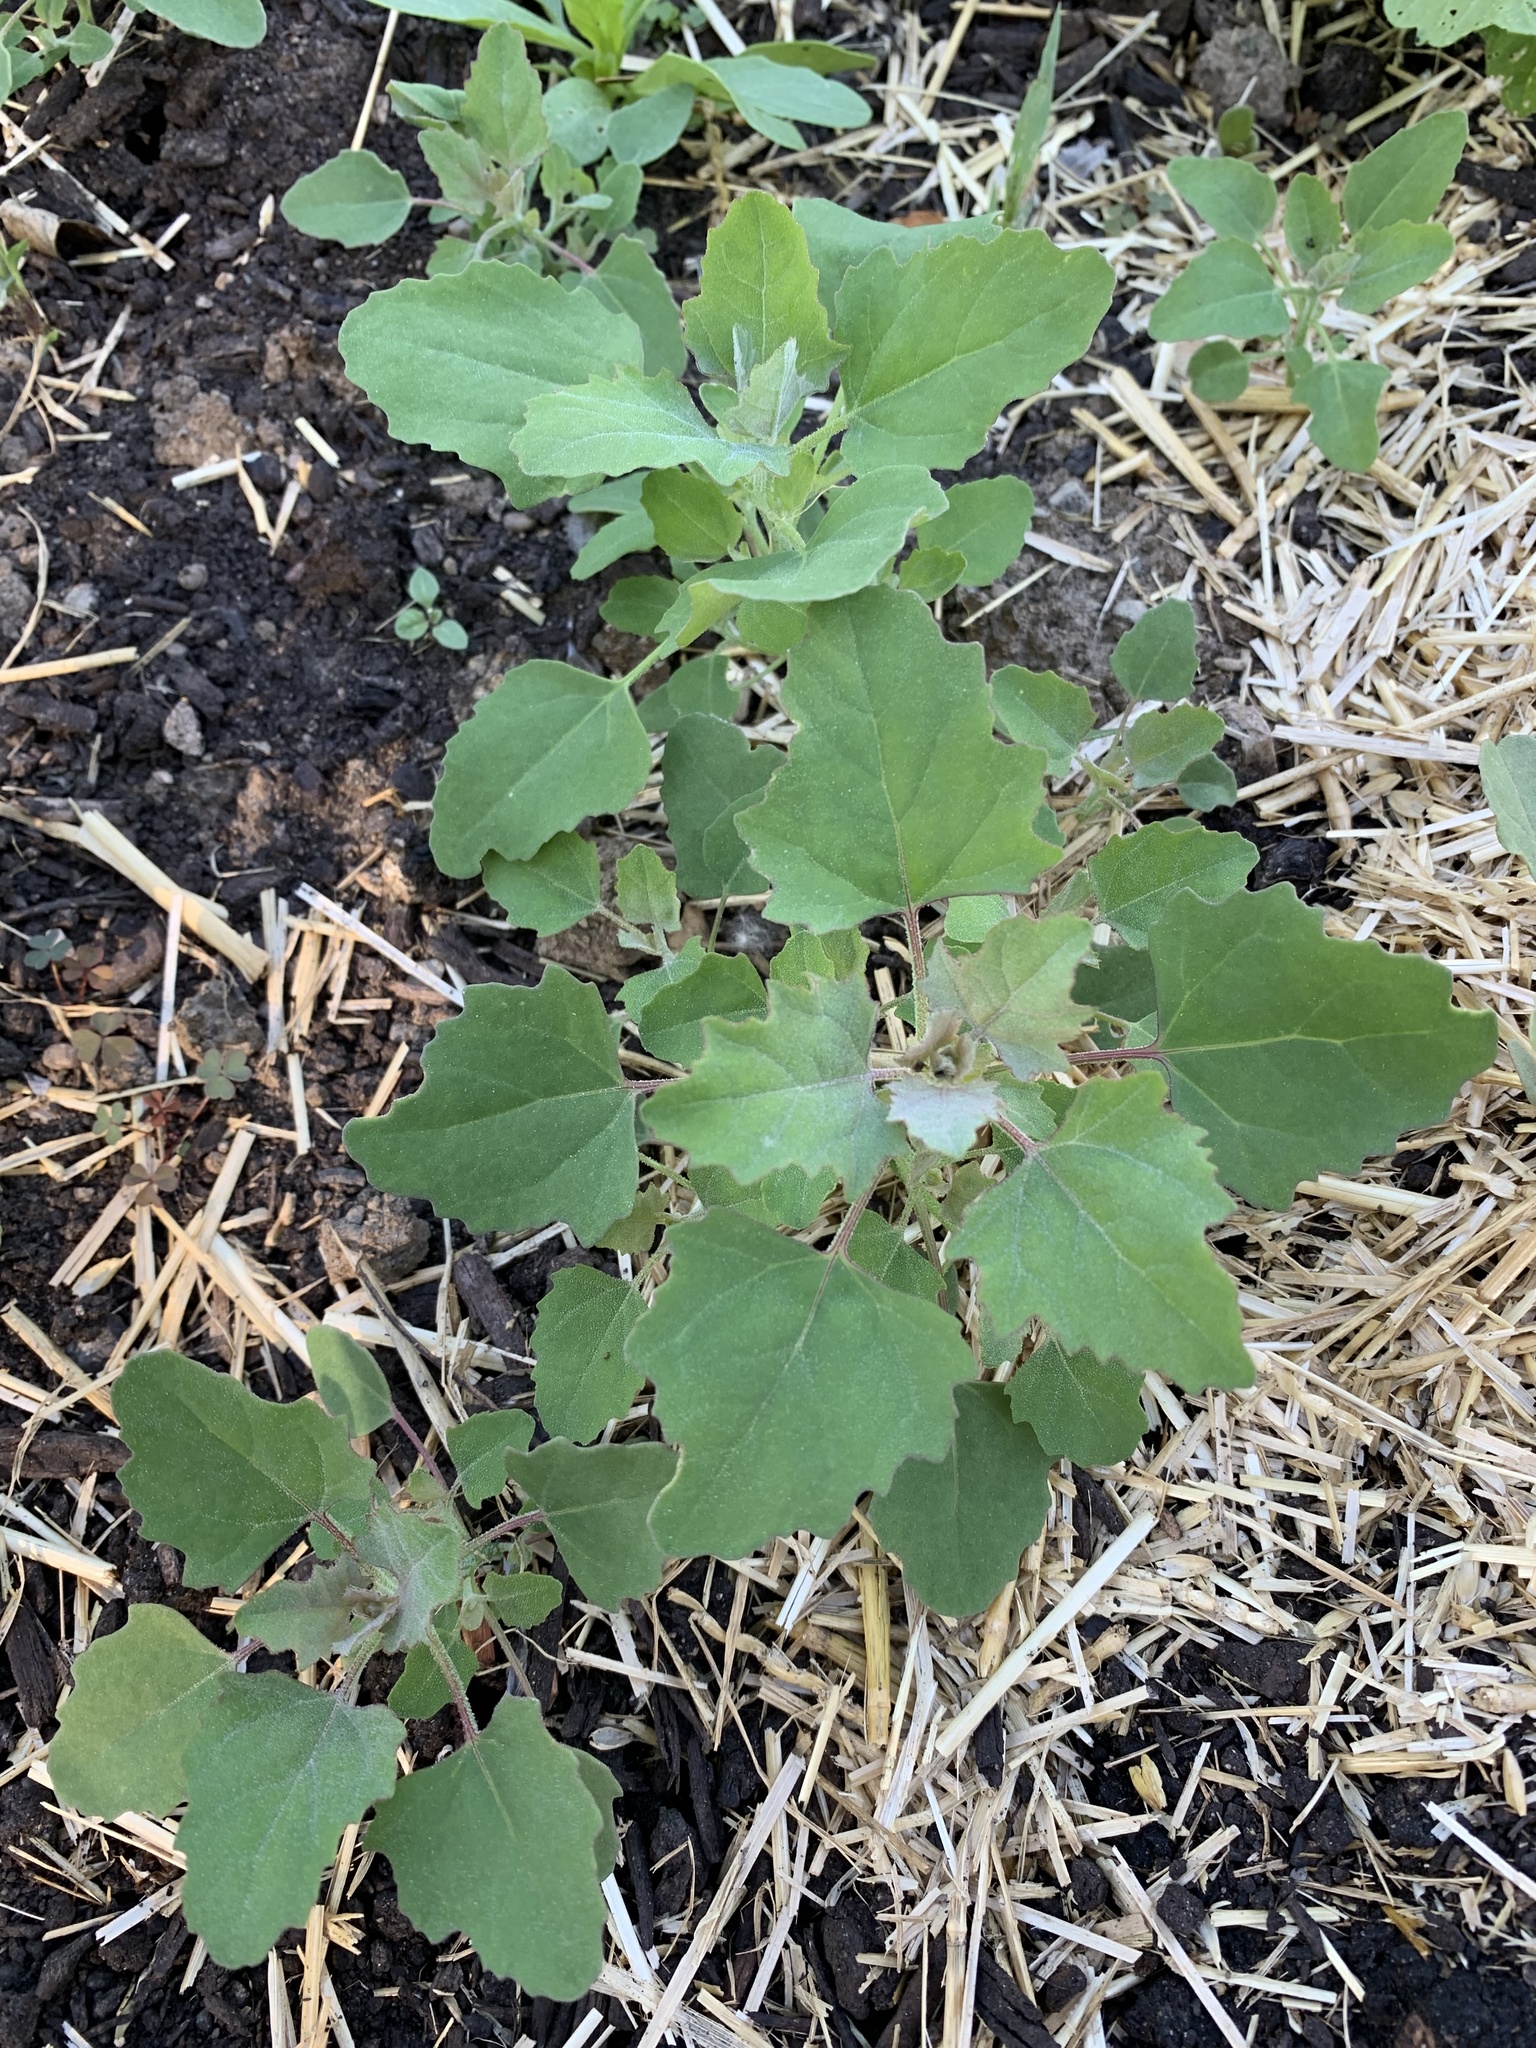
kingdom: Plantae
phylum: Tracheophyta
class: Magnoliopsida
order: Caryophyllales
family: Amaranthaceae
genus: Chenopodium
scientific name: Chenopodium album
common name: Fat-hen
